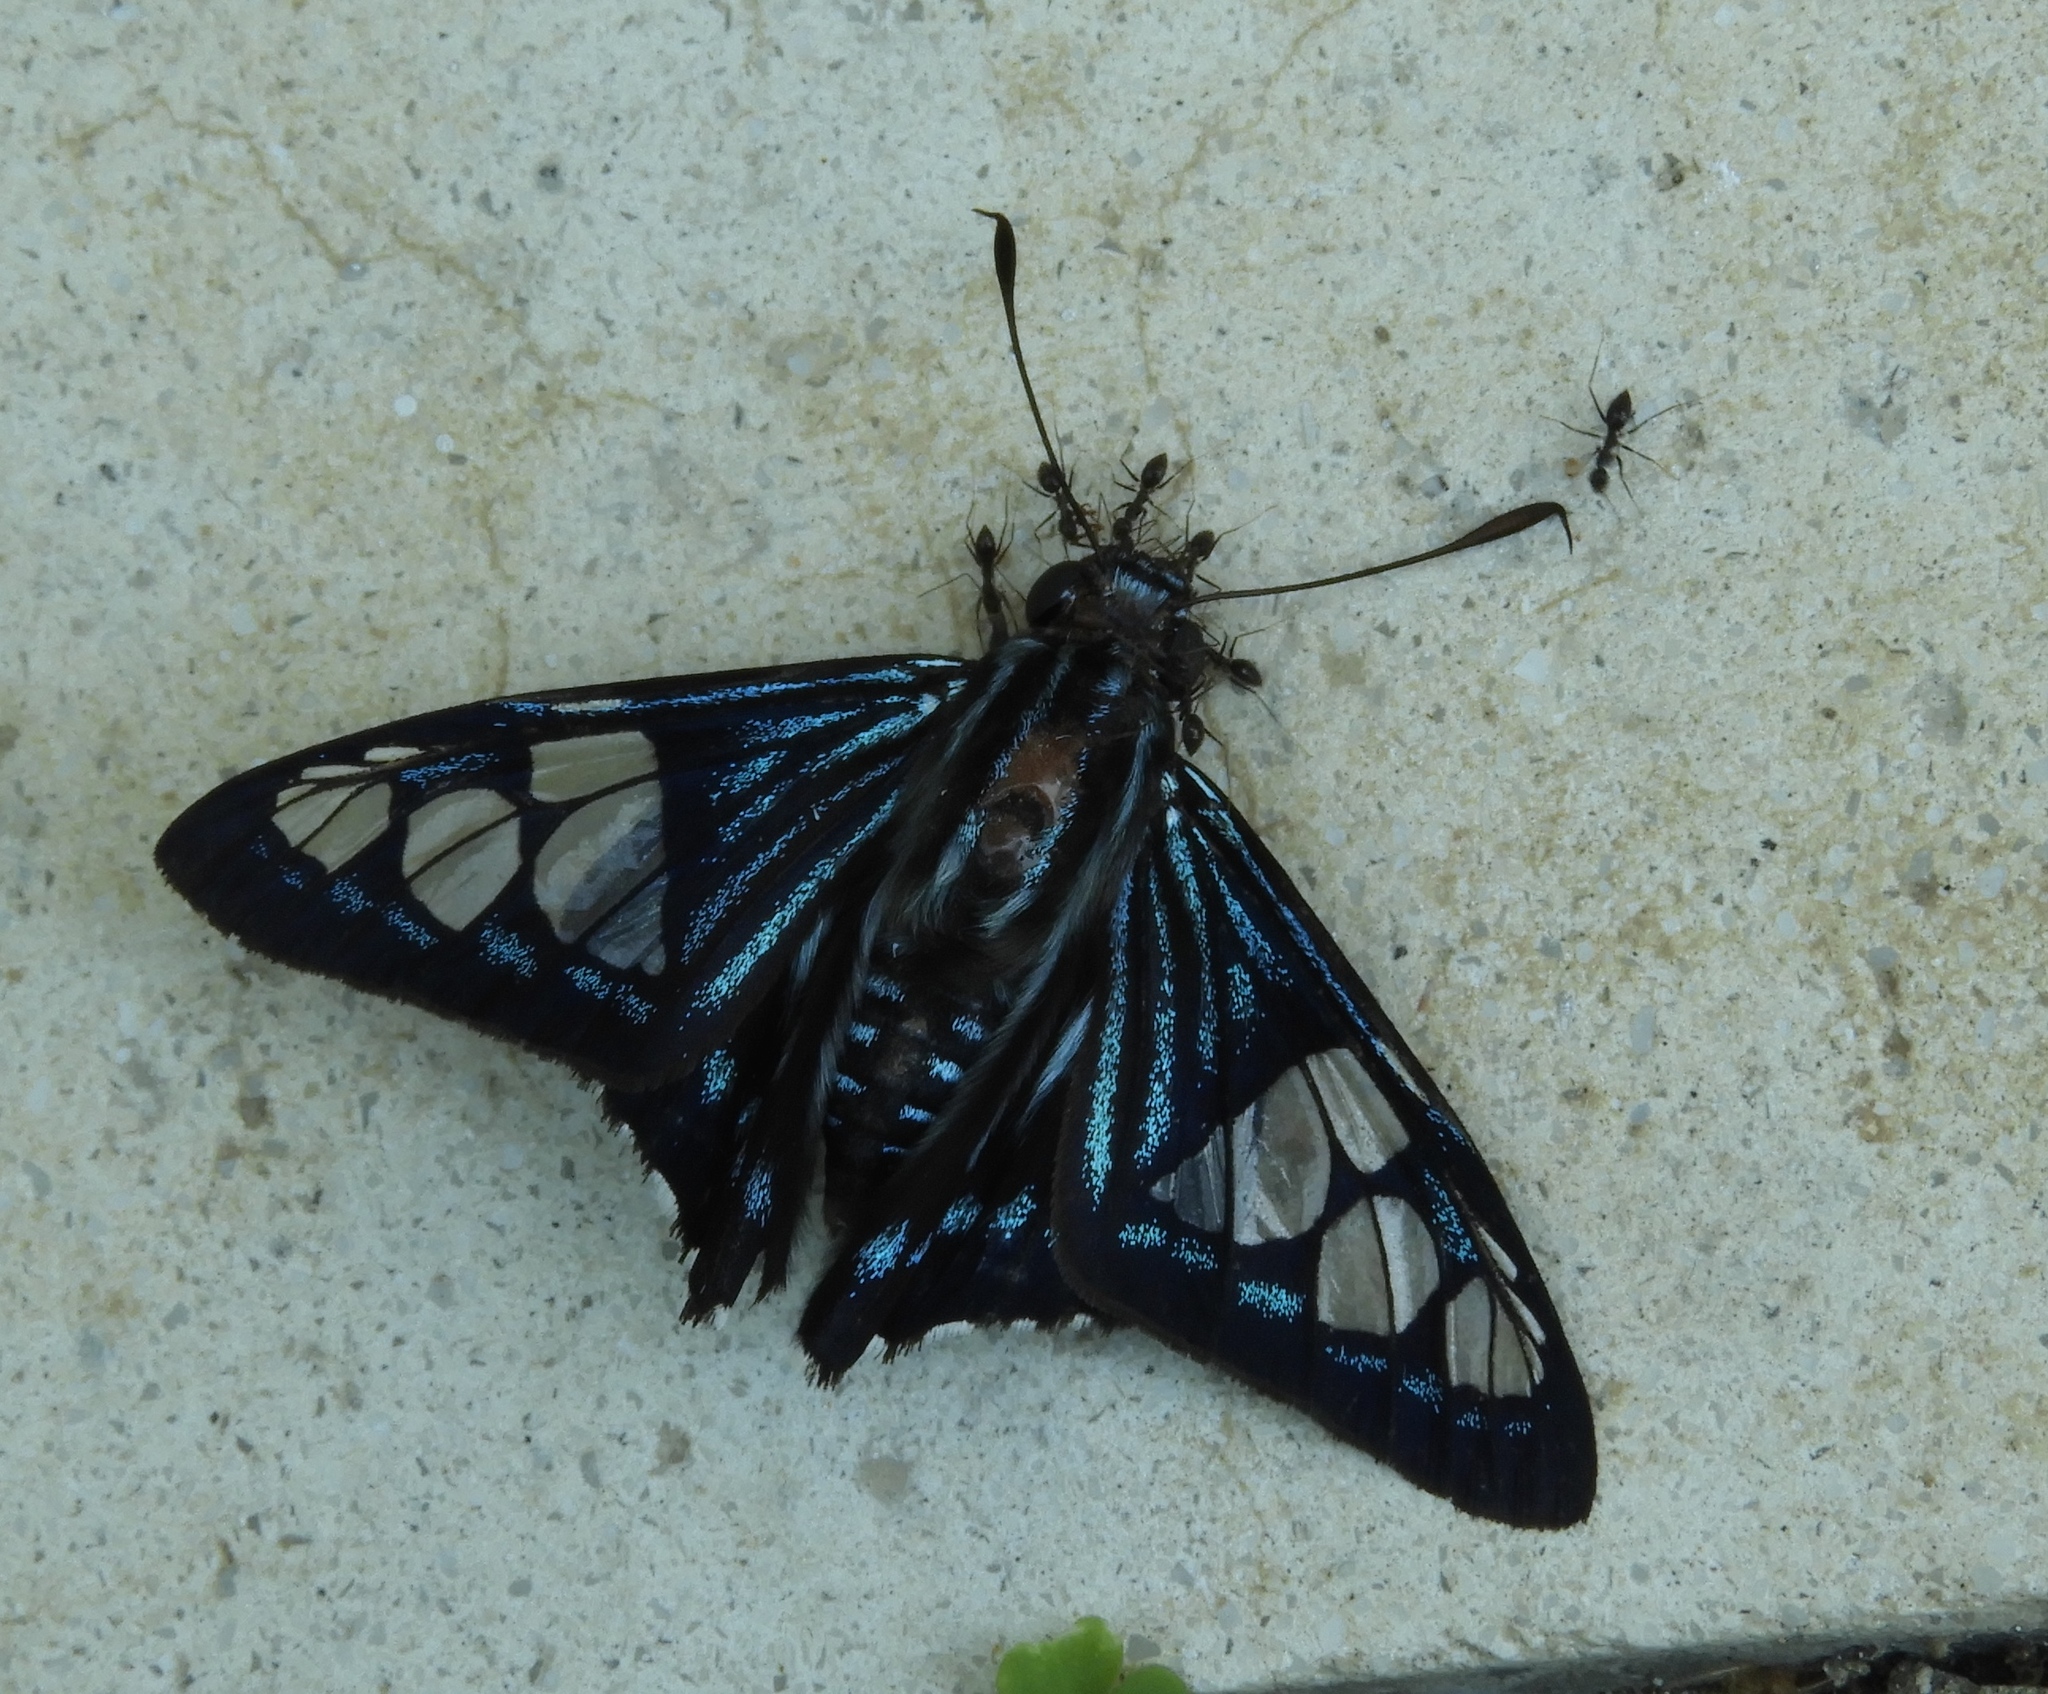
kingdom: Animalia
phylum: Arthropoda
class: Insecta
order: Lepidoptera
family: Hesperiidae
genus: Phocides
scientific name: Phocides pigmalion
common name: Mangrove skipper
